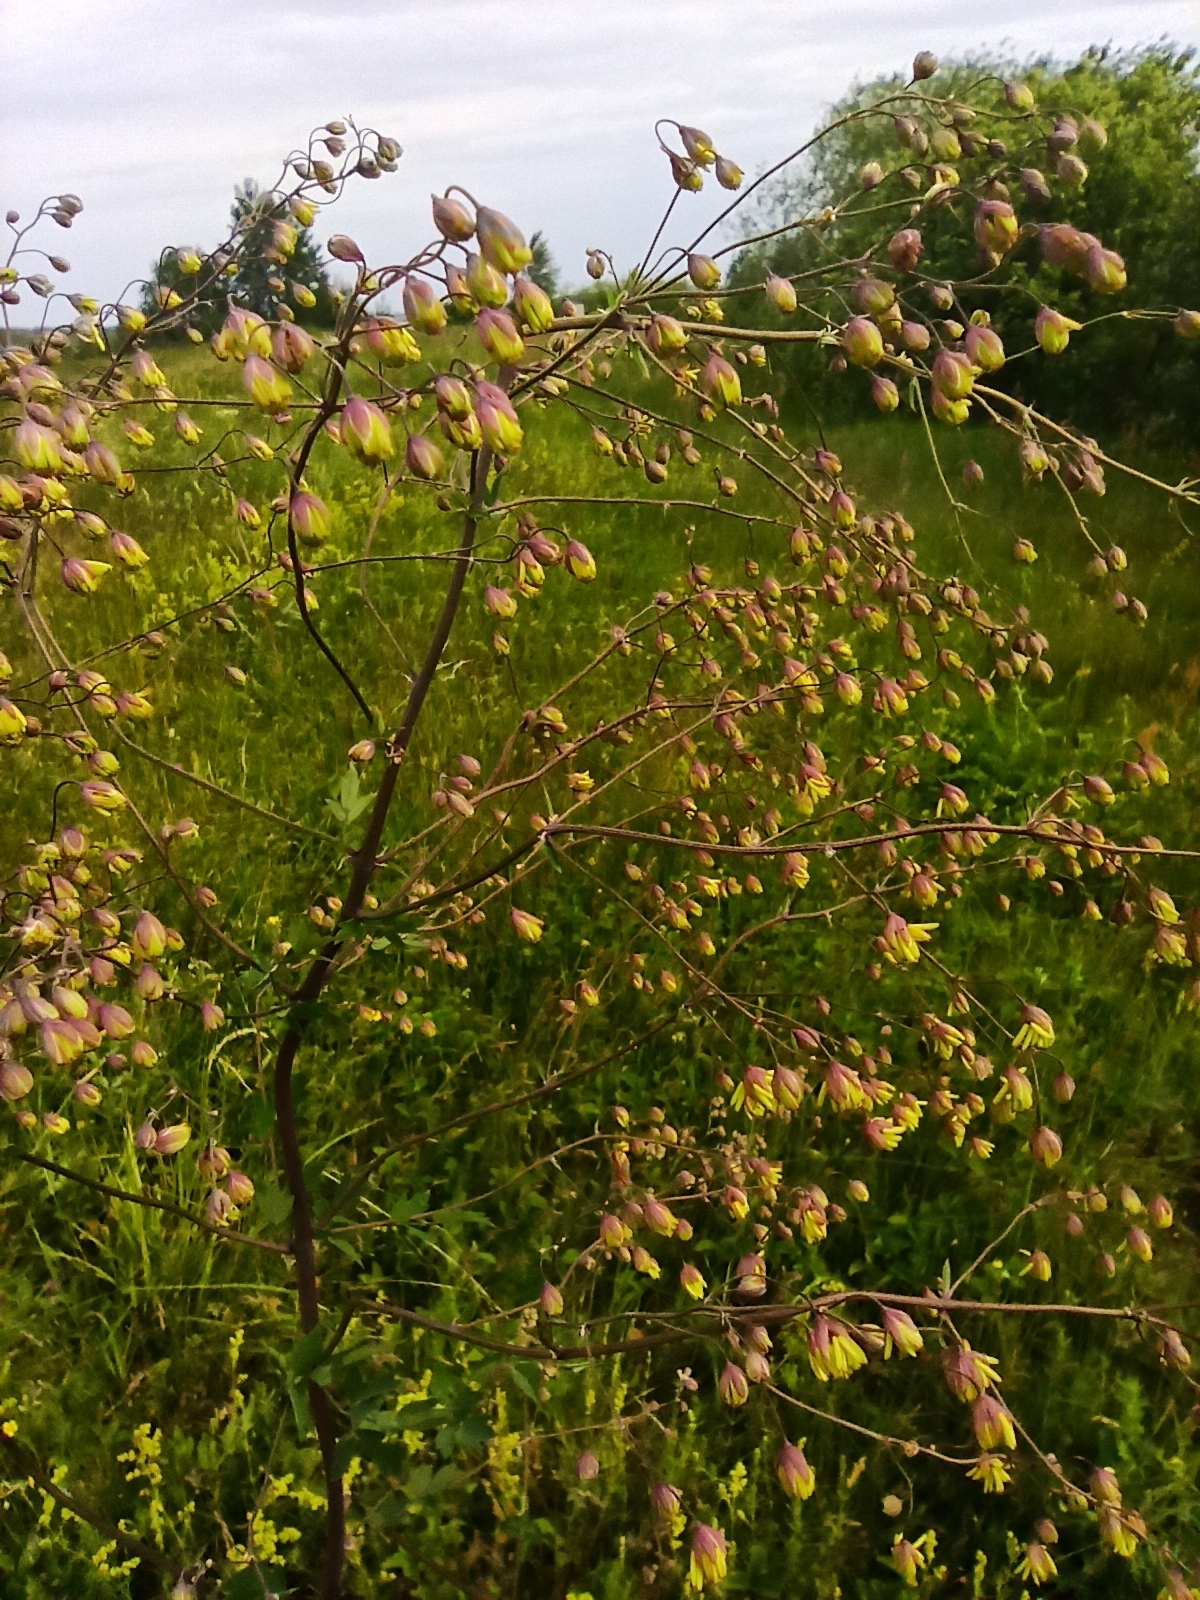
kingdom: Plantae
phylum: Tracheophyta
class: Magnoliopsida
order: Ranunculales
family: Ranunculaceae
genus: Thalictrum
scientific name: Thalictrum minus
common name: Lesser meadow-rue
